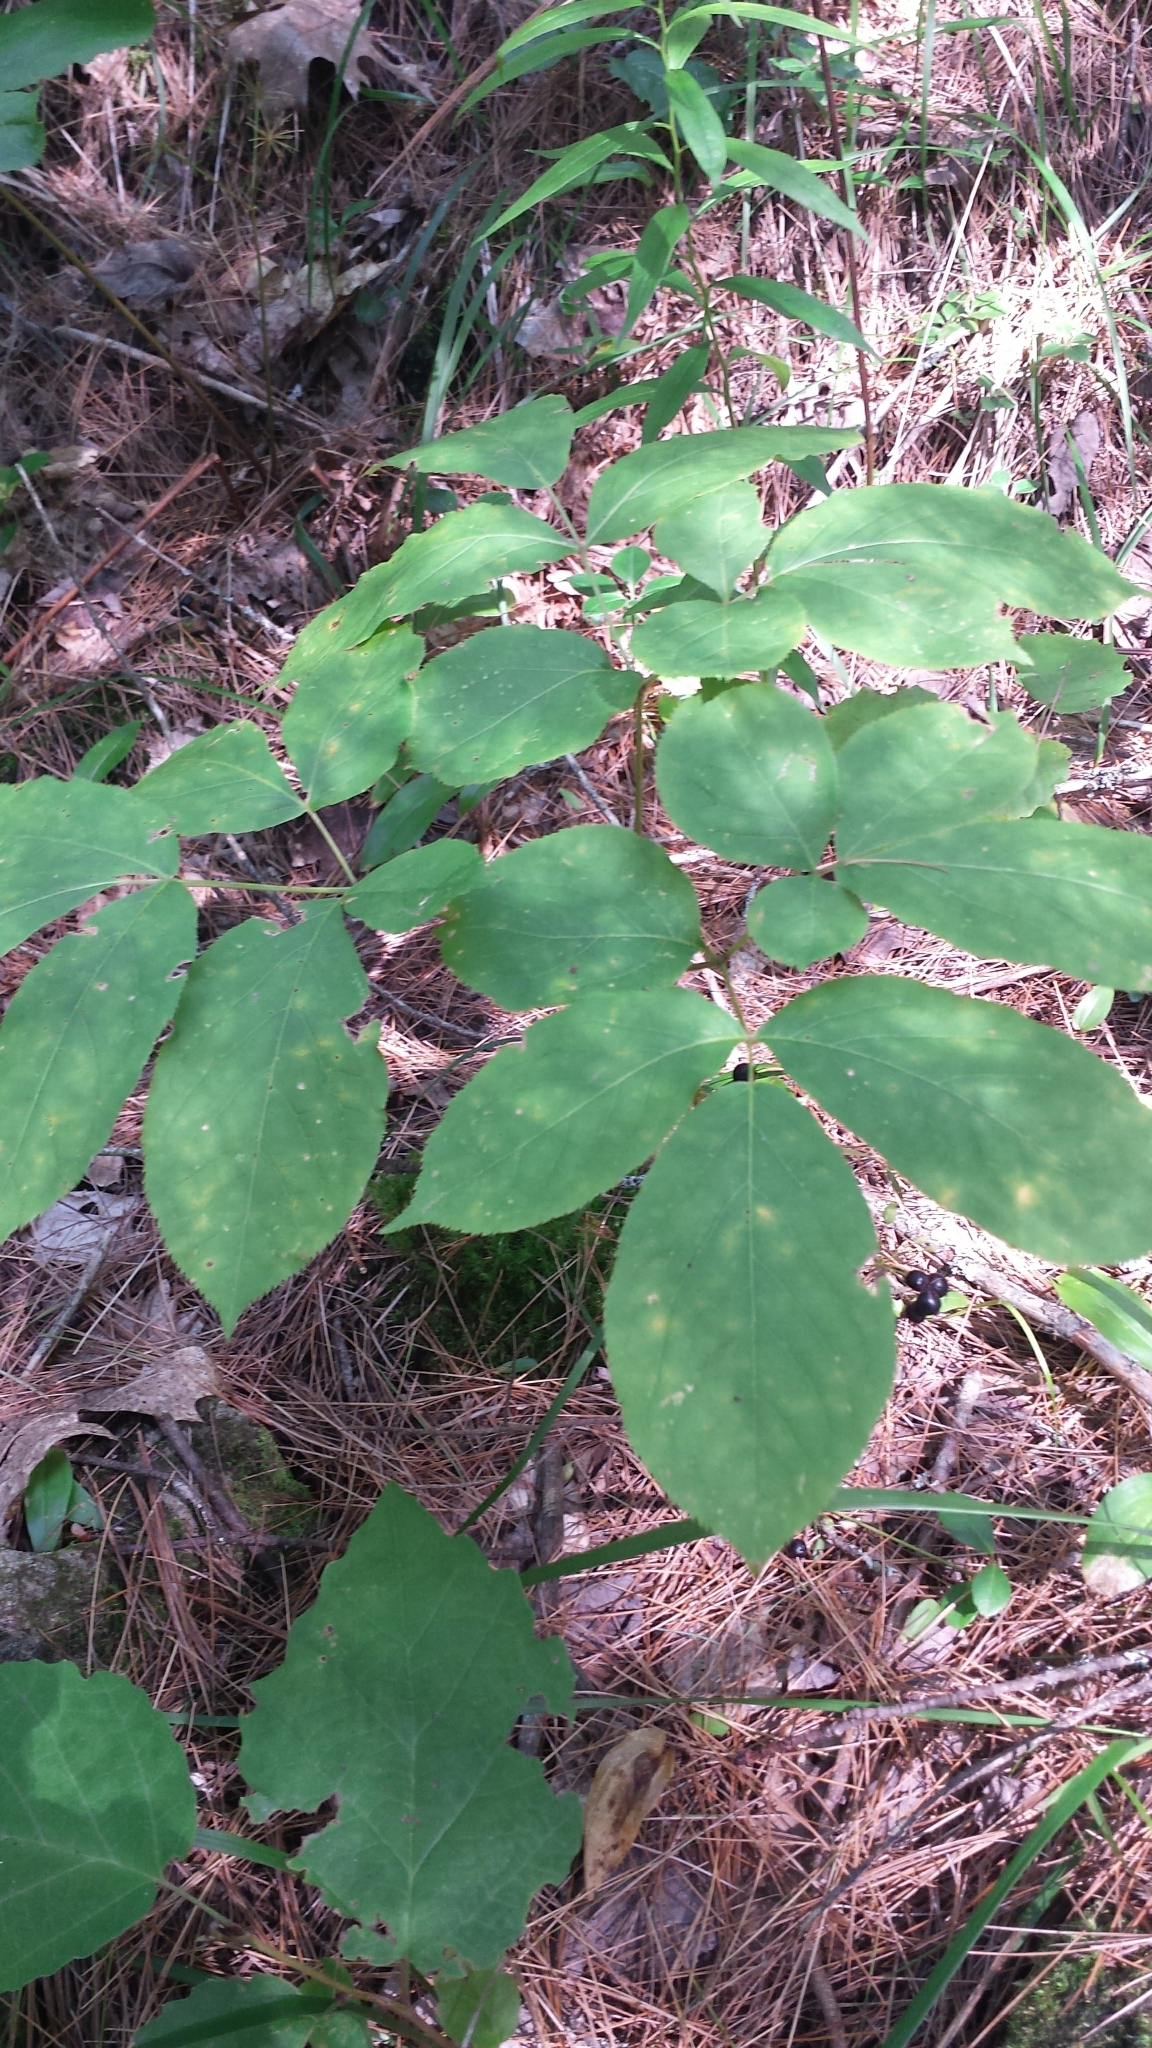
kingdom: Plantae
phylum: Tracheophyta
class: Magnoliopsida
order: Apiales
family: Araliaceae
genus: Aralia
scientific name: Aralia nudicaulis
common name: Wild sarsaparilla
